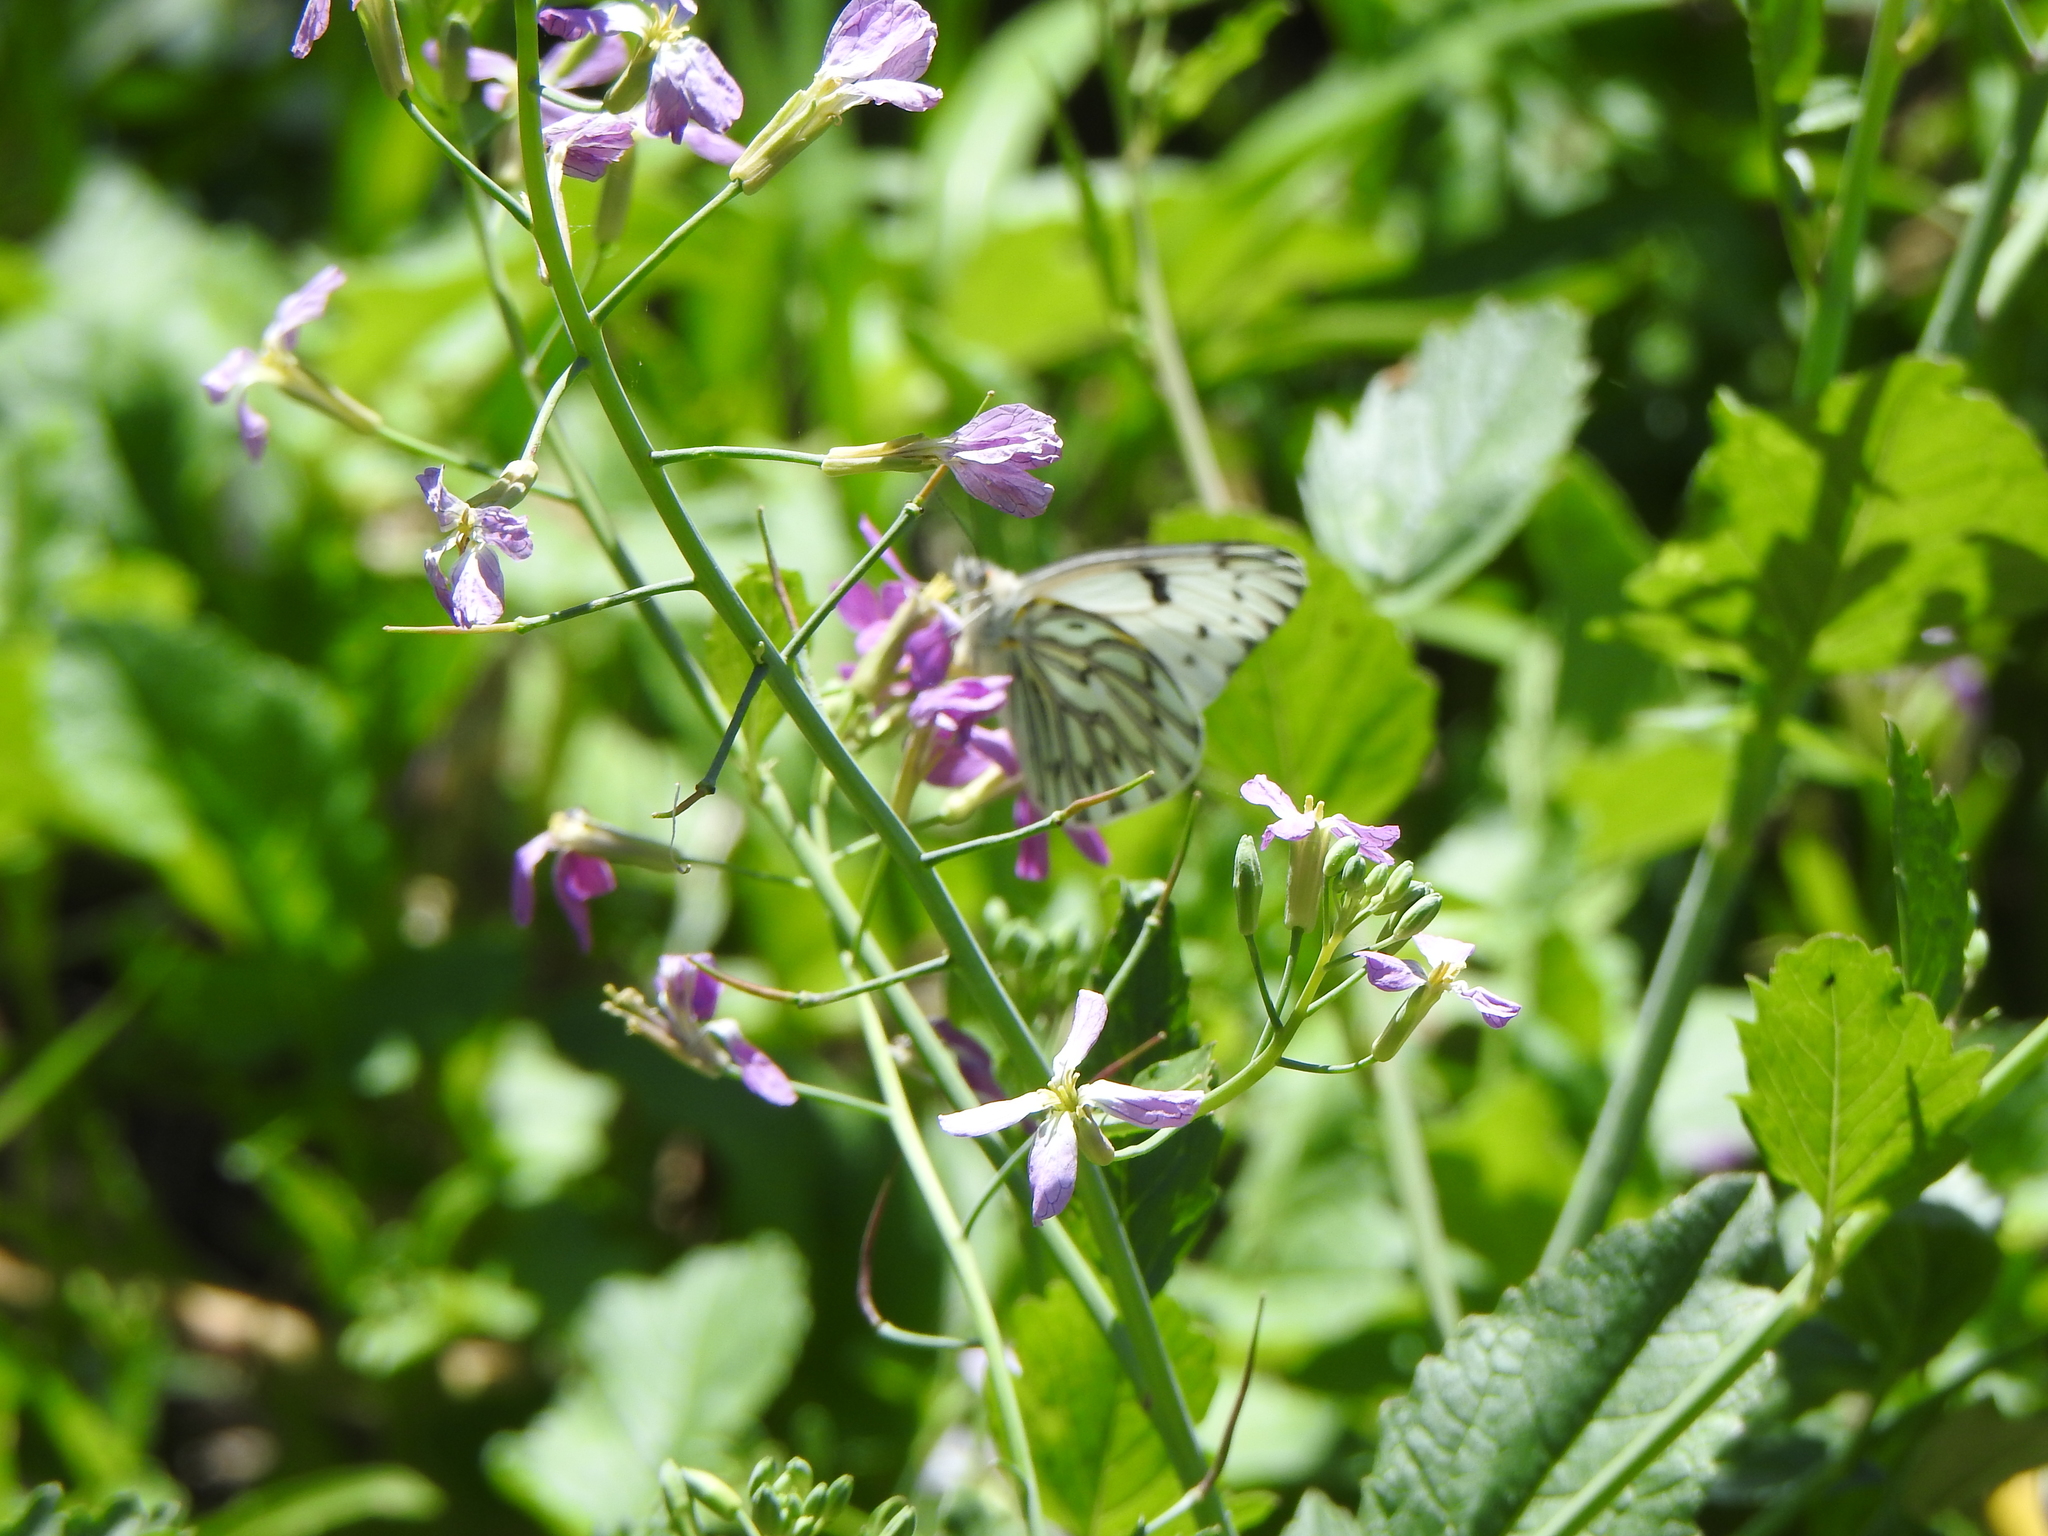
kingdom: Animalia
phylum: Arthropoda
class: Insecta
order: Lepidoptera
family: Pieridae
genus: Tatochila
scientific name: Tatochila autodice
